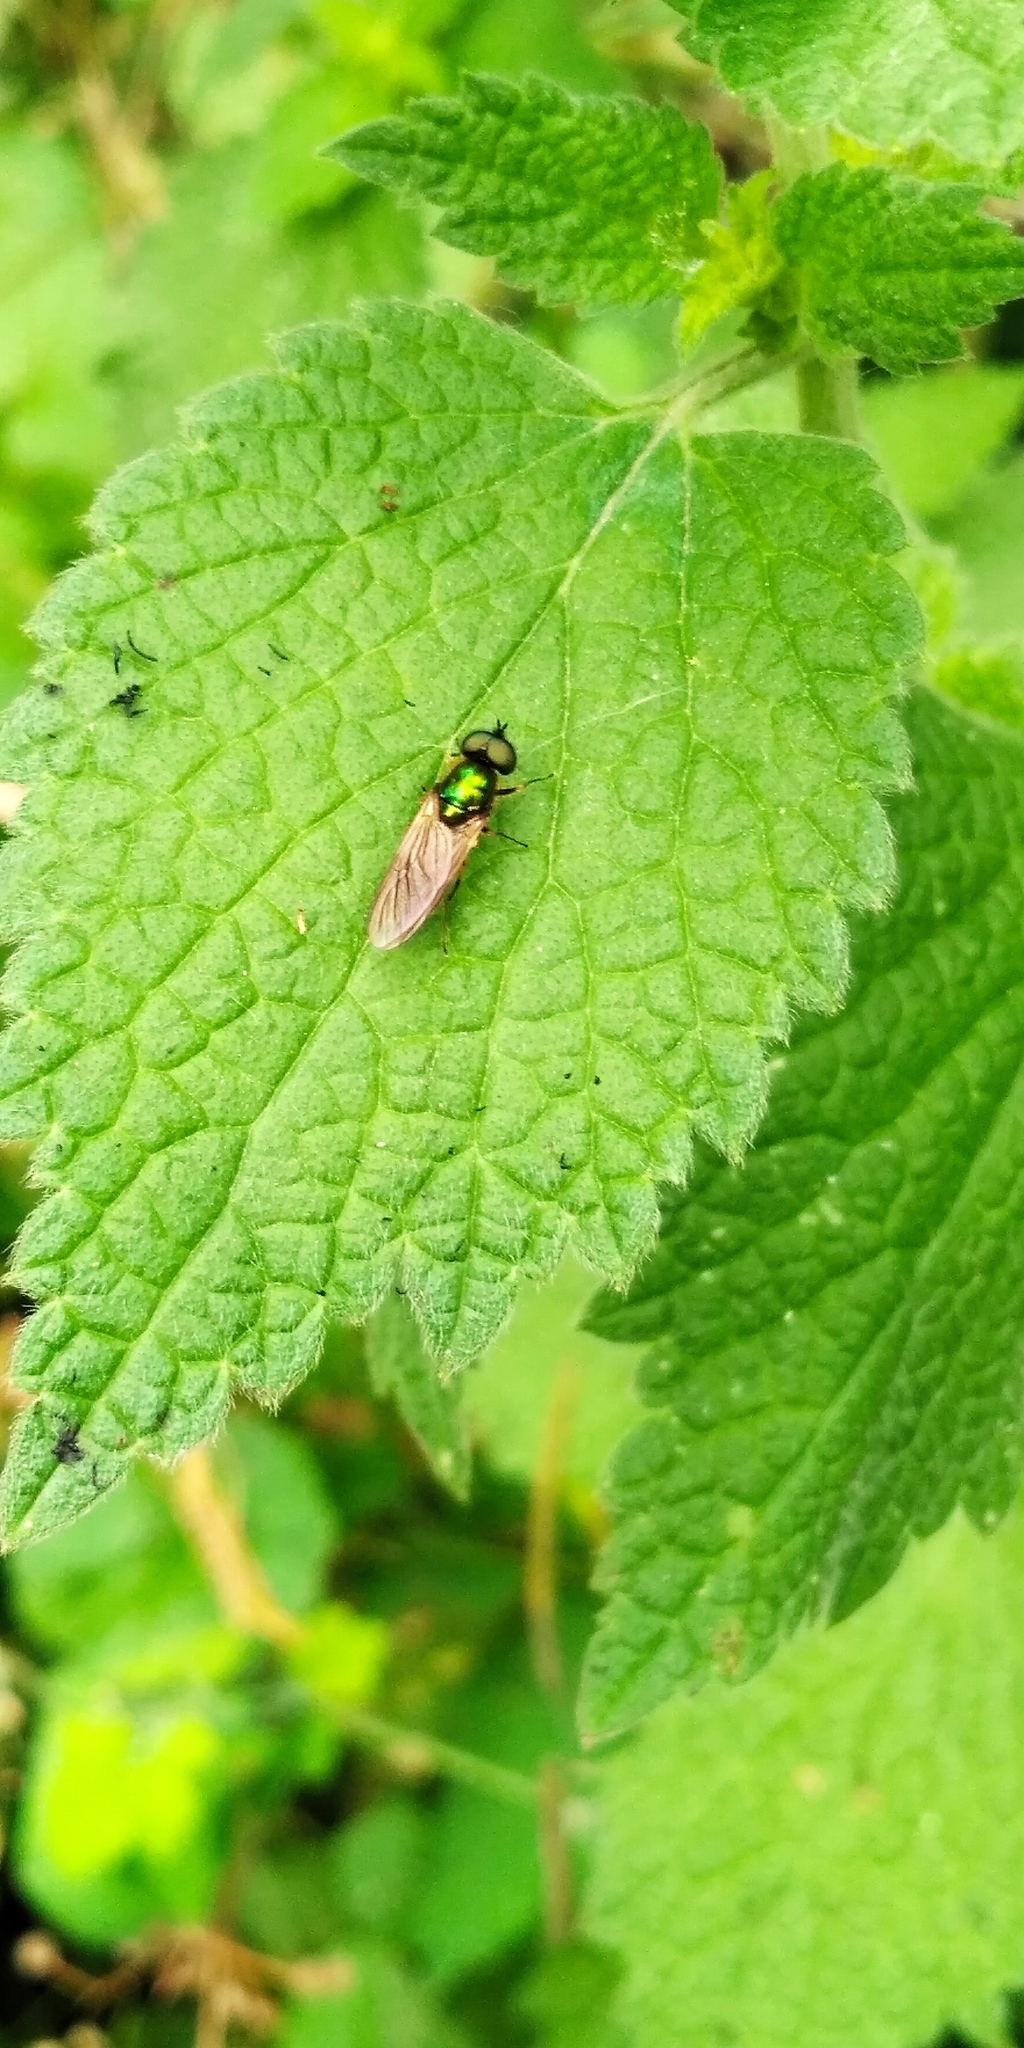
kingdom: Animalia
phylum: Arthropoda
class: Insecta
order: Diptera
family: Stratiomyidae
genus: Chloromyia
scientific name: Chloromyia formosa
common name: Soldier fly
